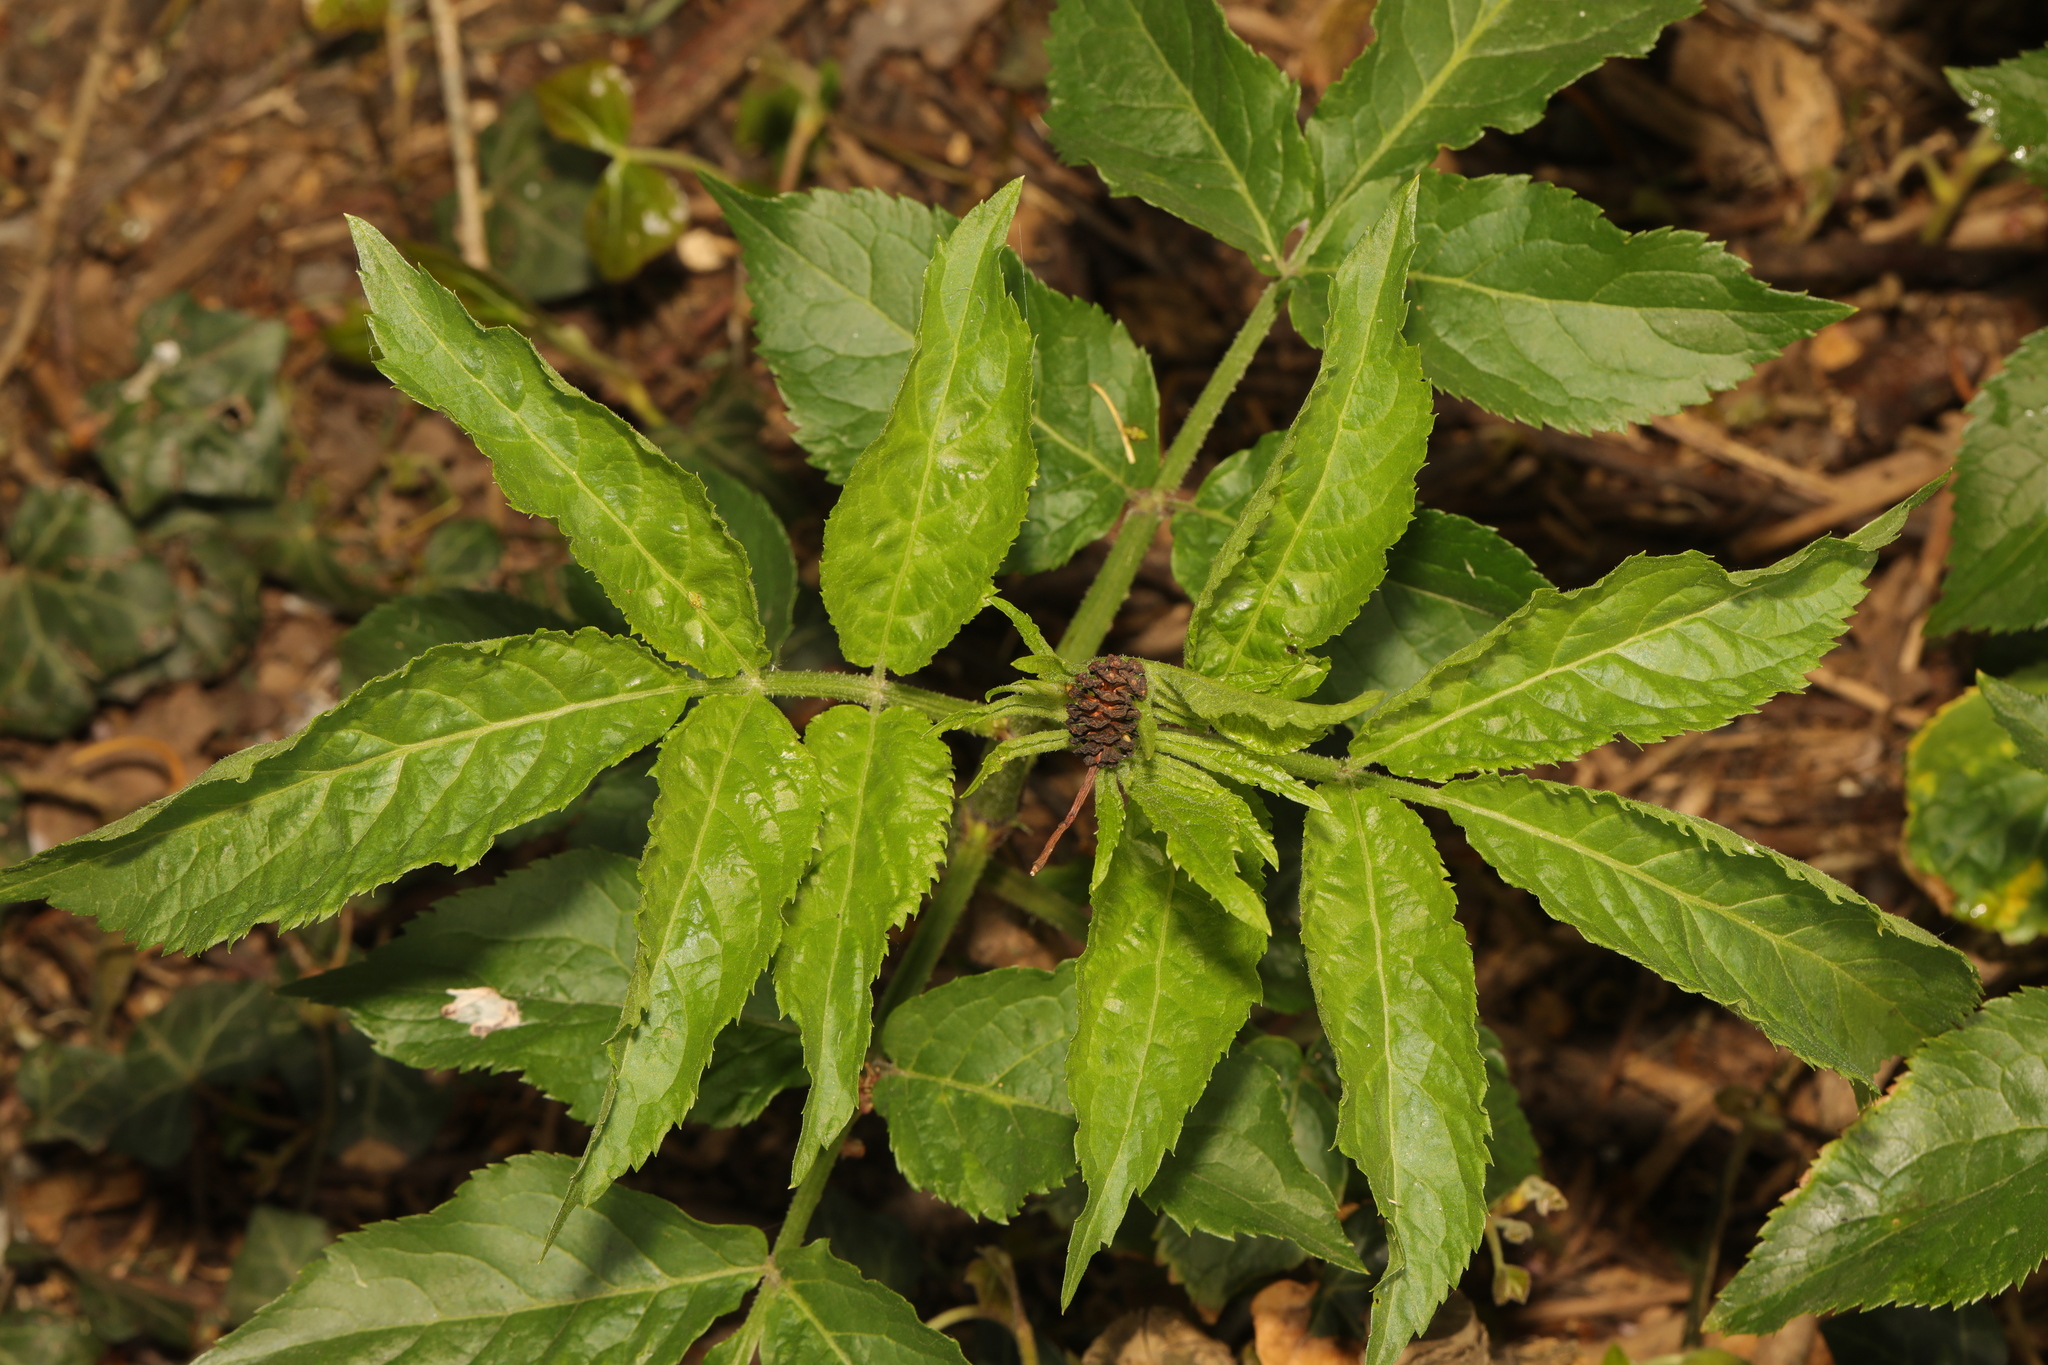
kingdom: Plantae
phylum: Tracheophyta
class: Magnoliopsida
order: Dipsacales
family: Viburnaceae
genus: Sambucus
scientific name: Sambucus nigra
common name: Elder
